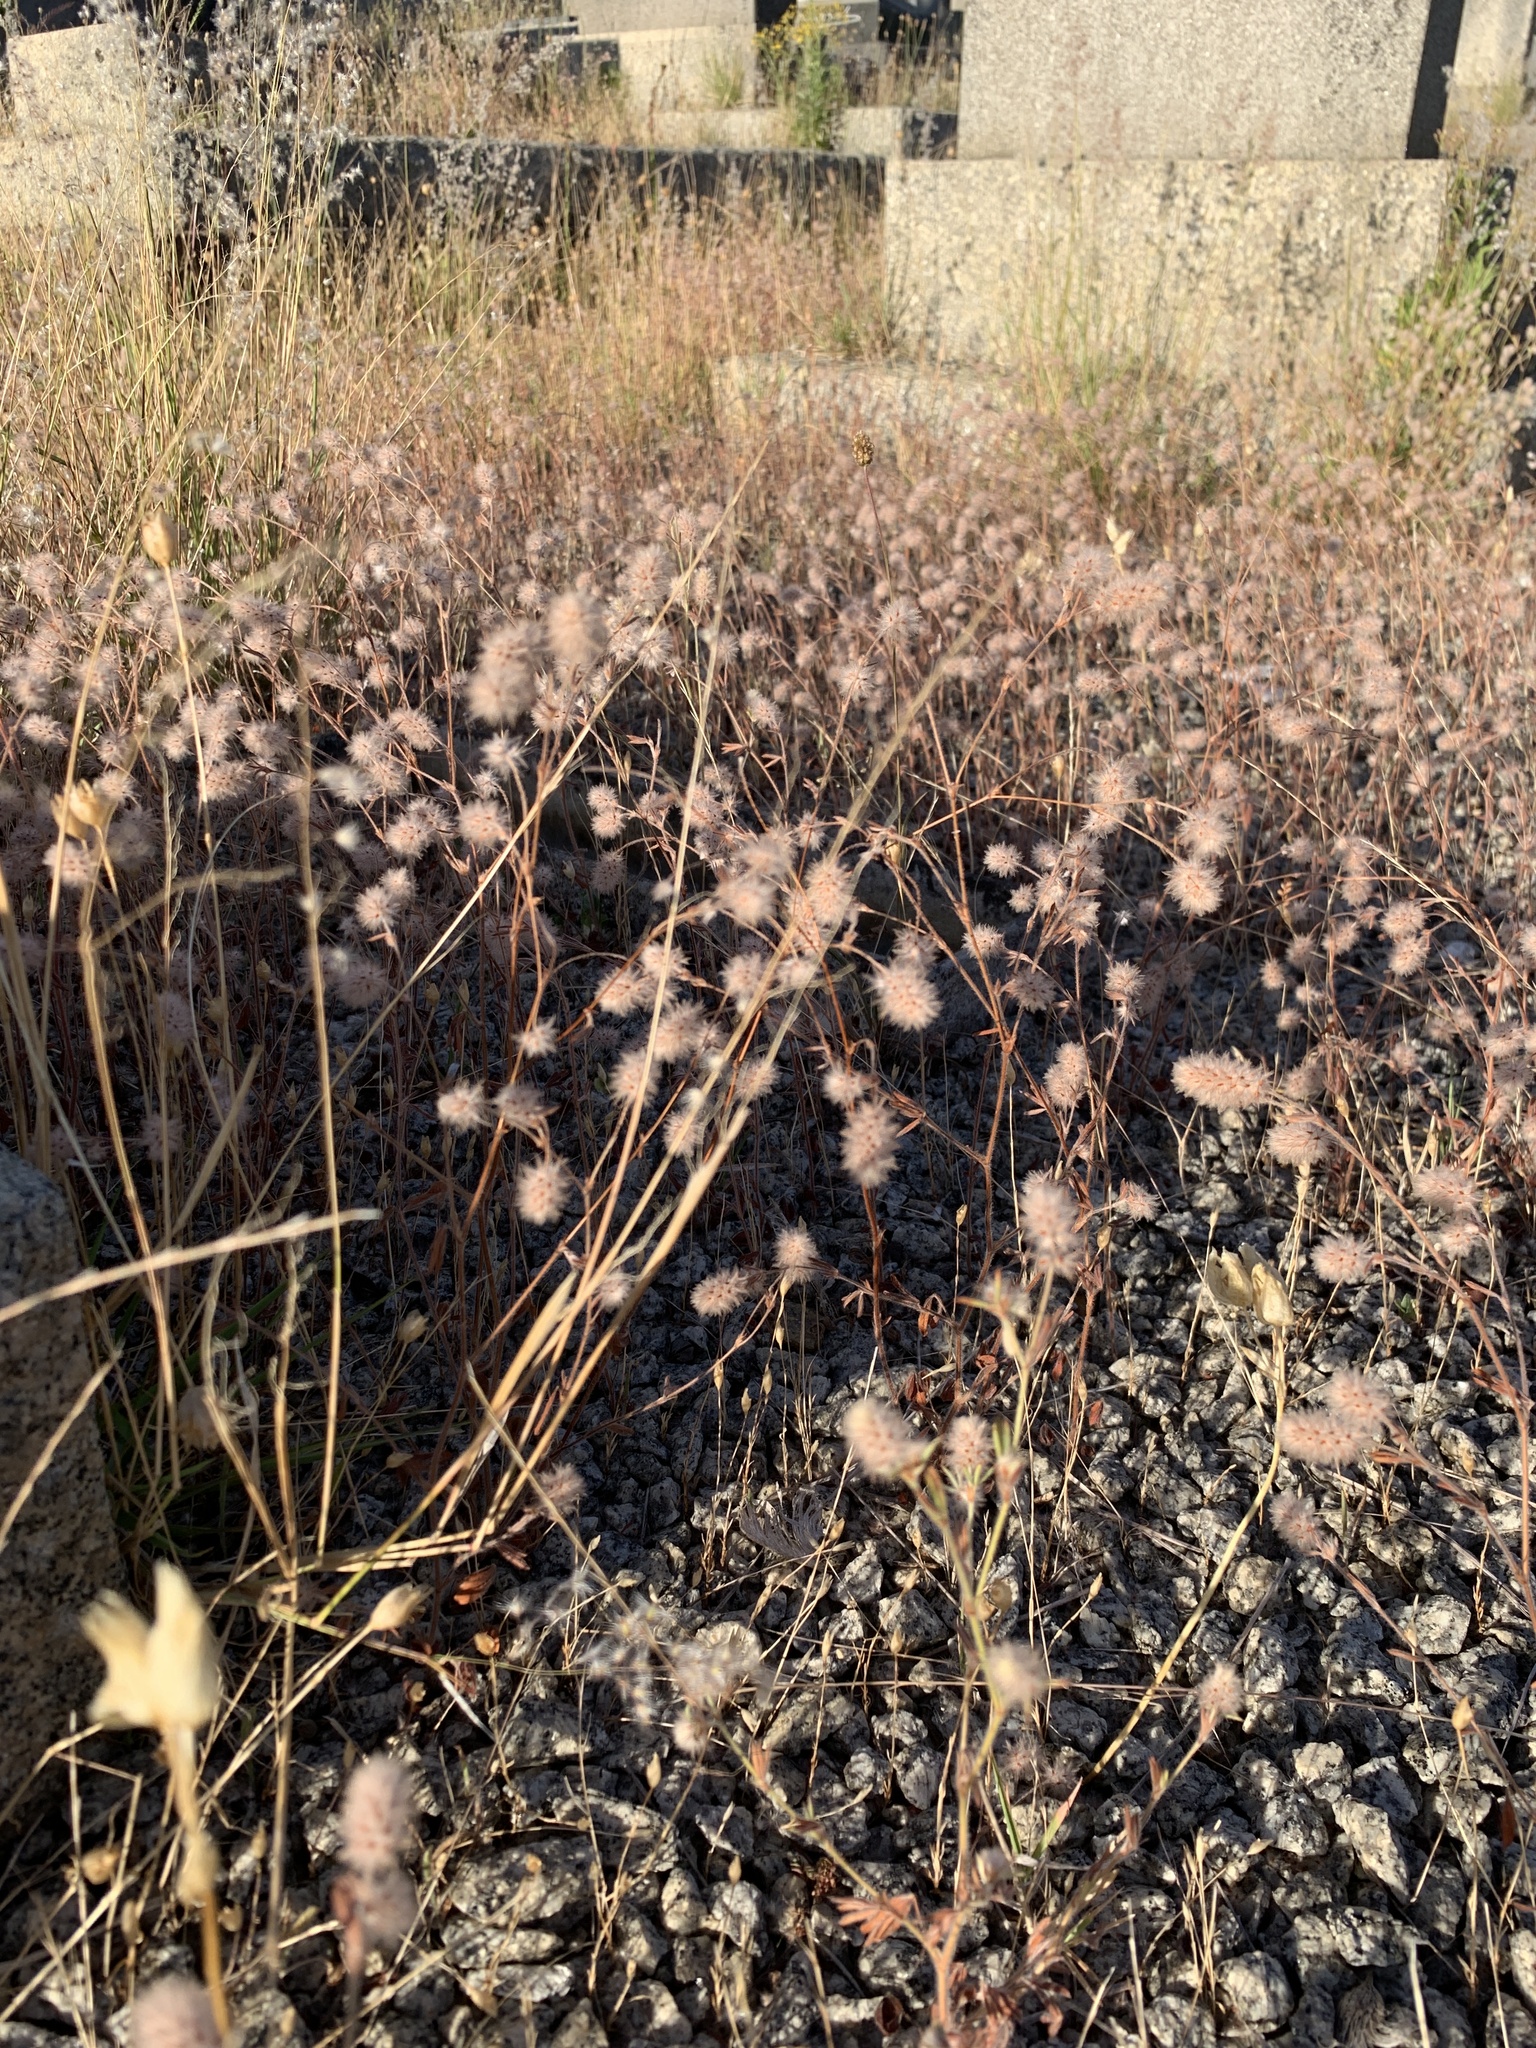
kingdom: Plantae
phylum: Tracheophyta
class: Magnoliopsida
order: Fabales
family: Fabaceae
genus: Trifolium
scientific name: Trifolium arvense
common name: Hare's-foot clover
